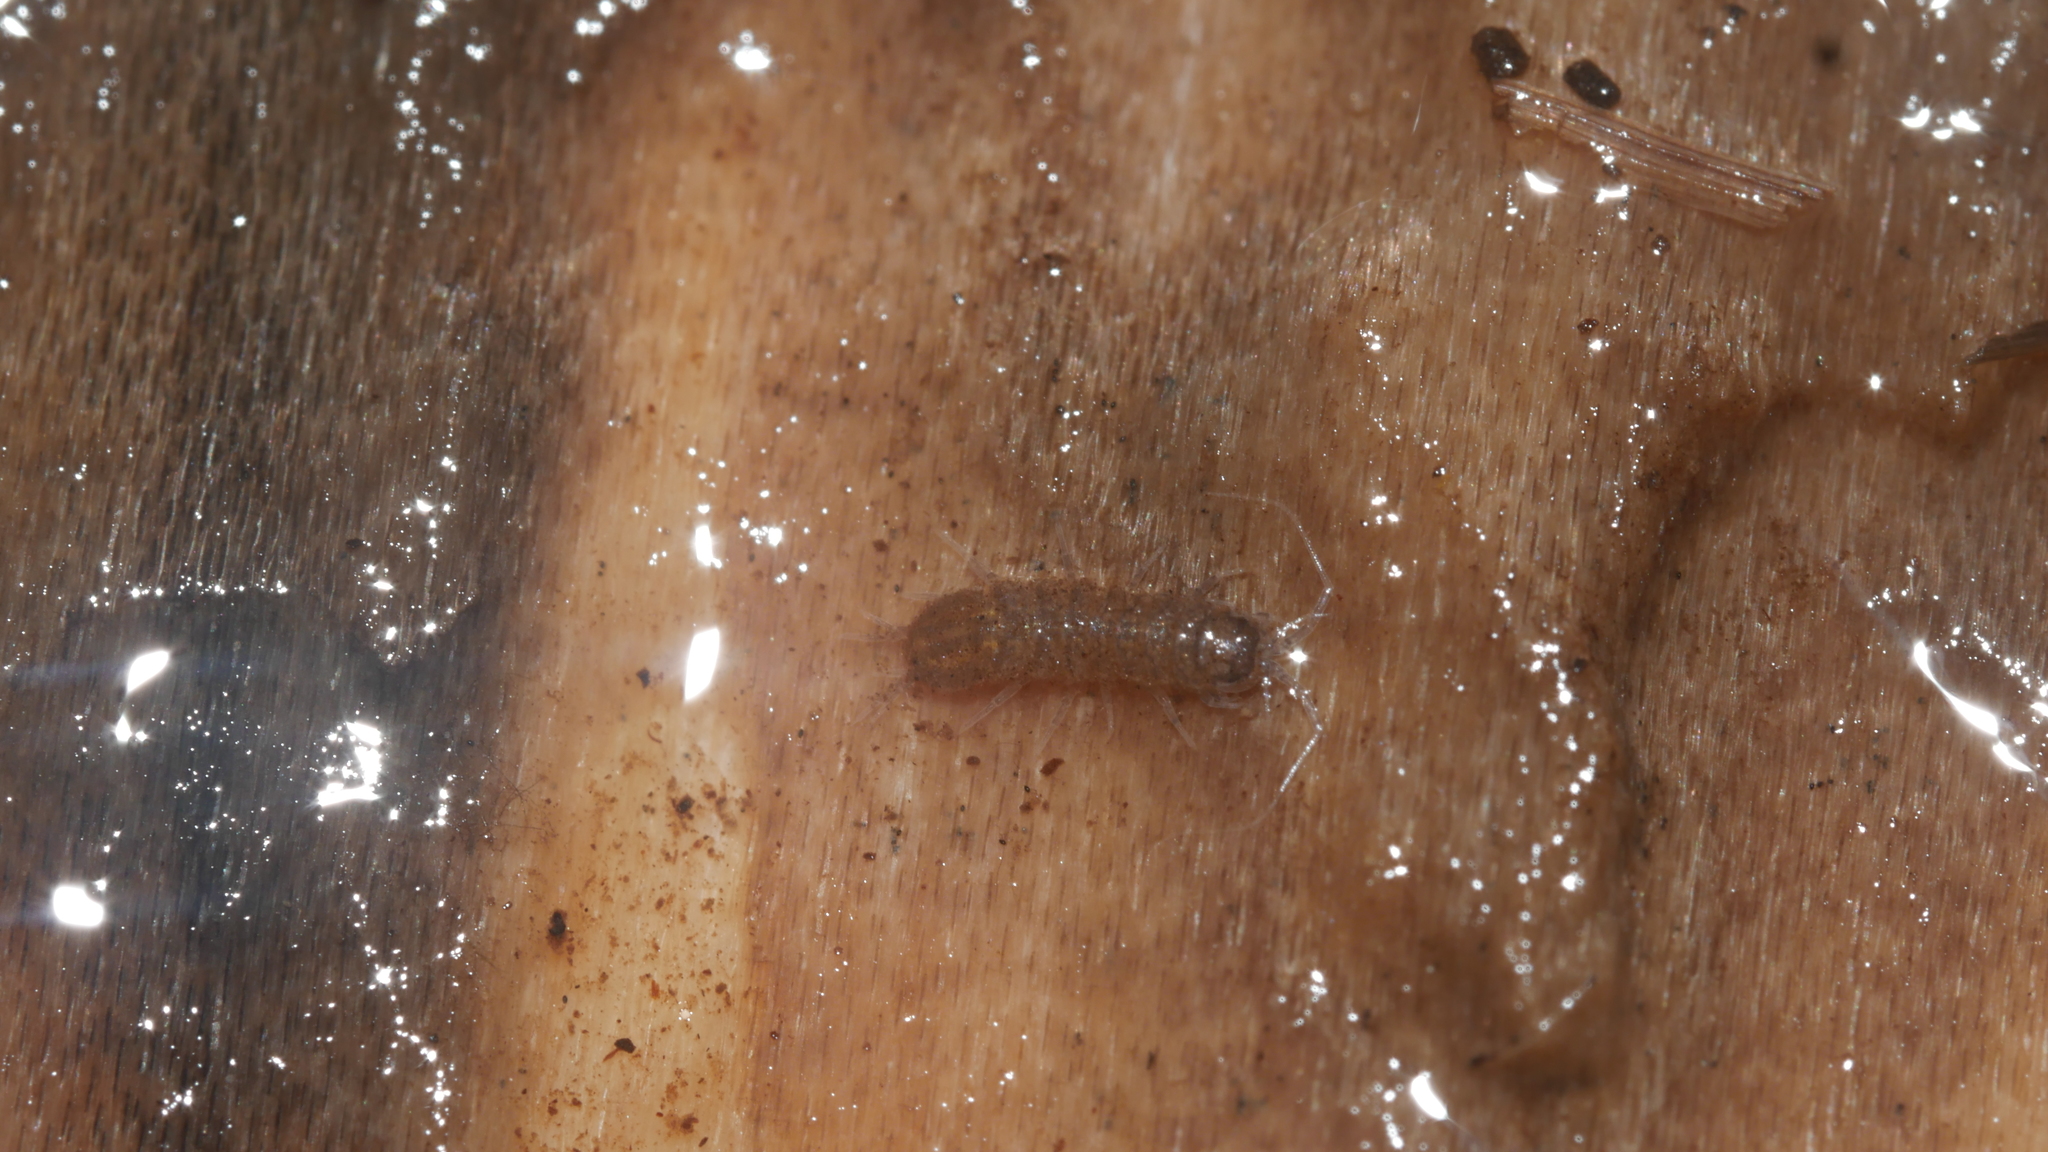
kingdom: Animalia
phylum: Arthropoda
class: Malacostraca
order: Isopoda
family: Asellidae
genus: Caecidotea
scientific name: Caecidotea nodula
